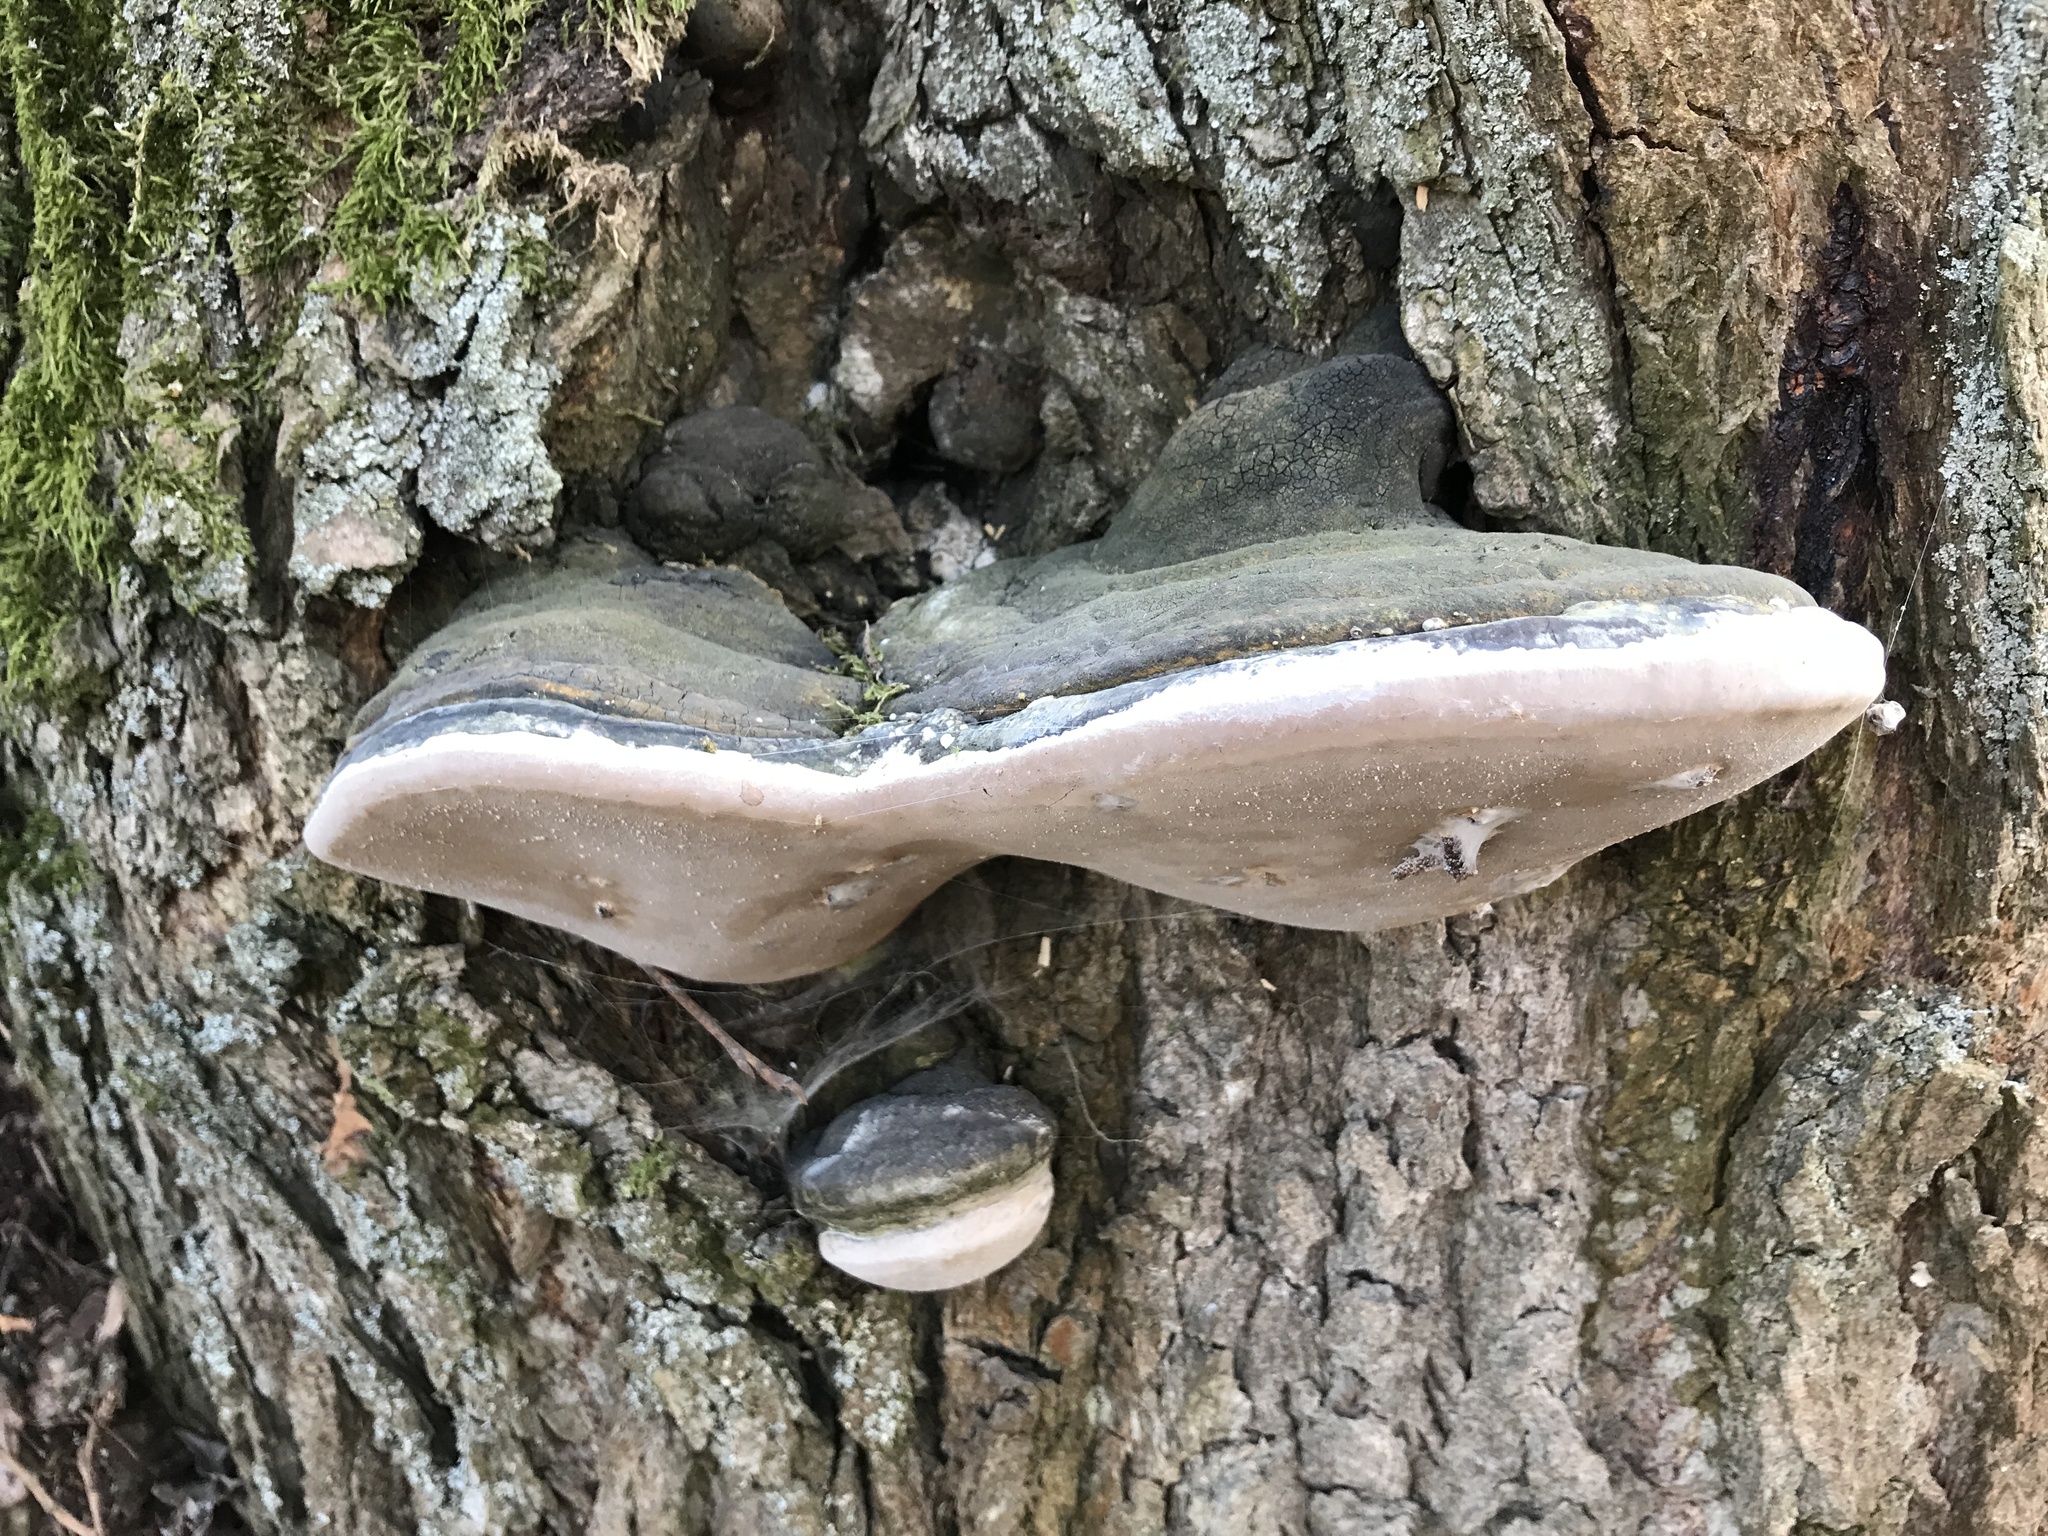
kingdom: Fungi
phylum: Basidiomycota
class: Agaricomycetes
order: Hymenochaetales
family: Hymenochaetaceae
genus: Phellinus
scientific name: Phellinus igniarius
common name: Willow bracket
